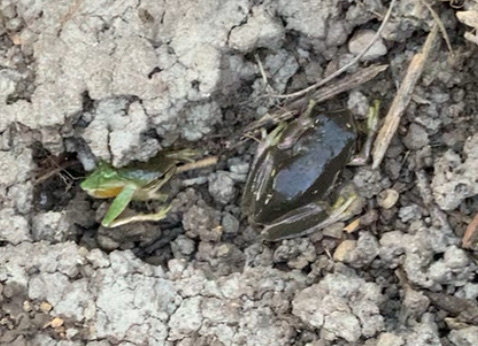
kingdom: Animalia
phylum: Chordata
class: Amphibia
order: Anura
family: Hylidae
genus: Hyla
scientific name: Hyla meridionalis
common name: Stripeless tree frog
